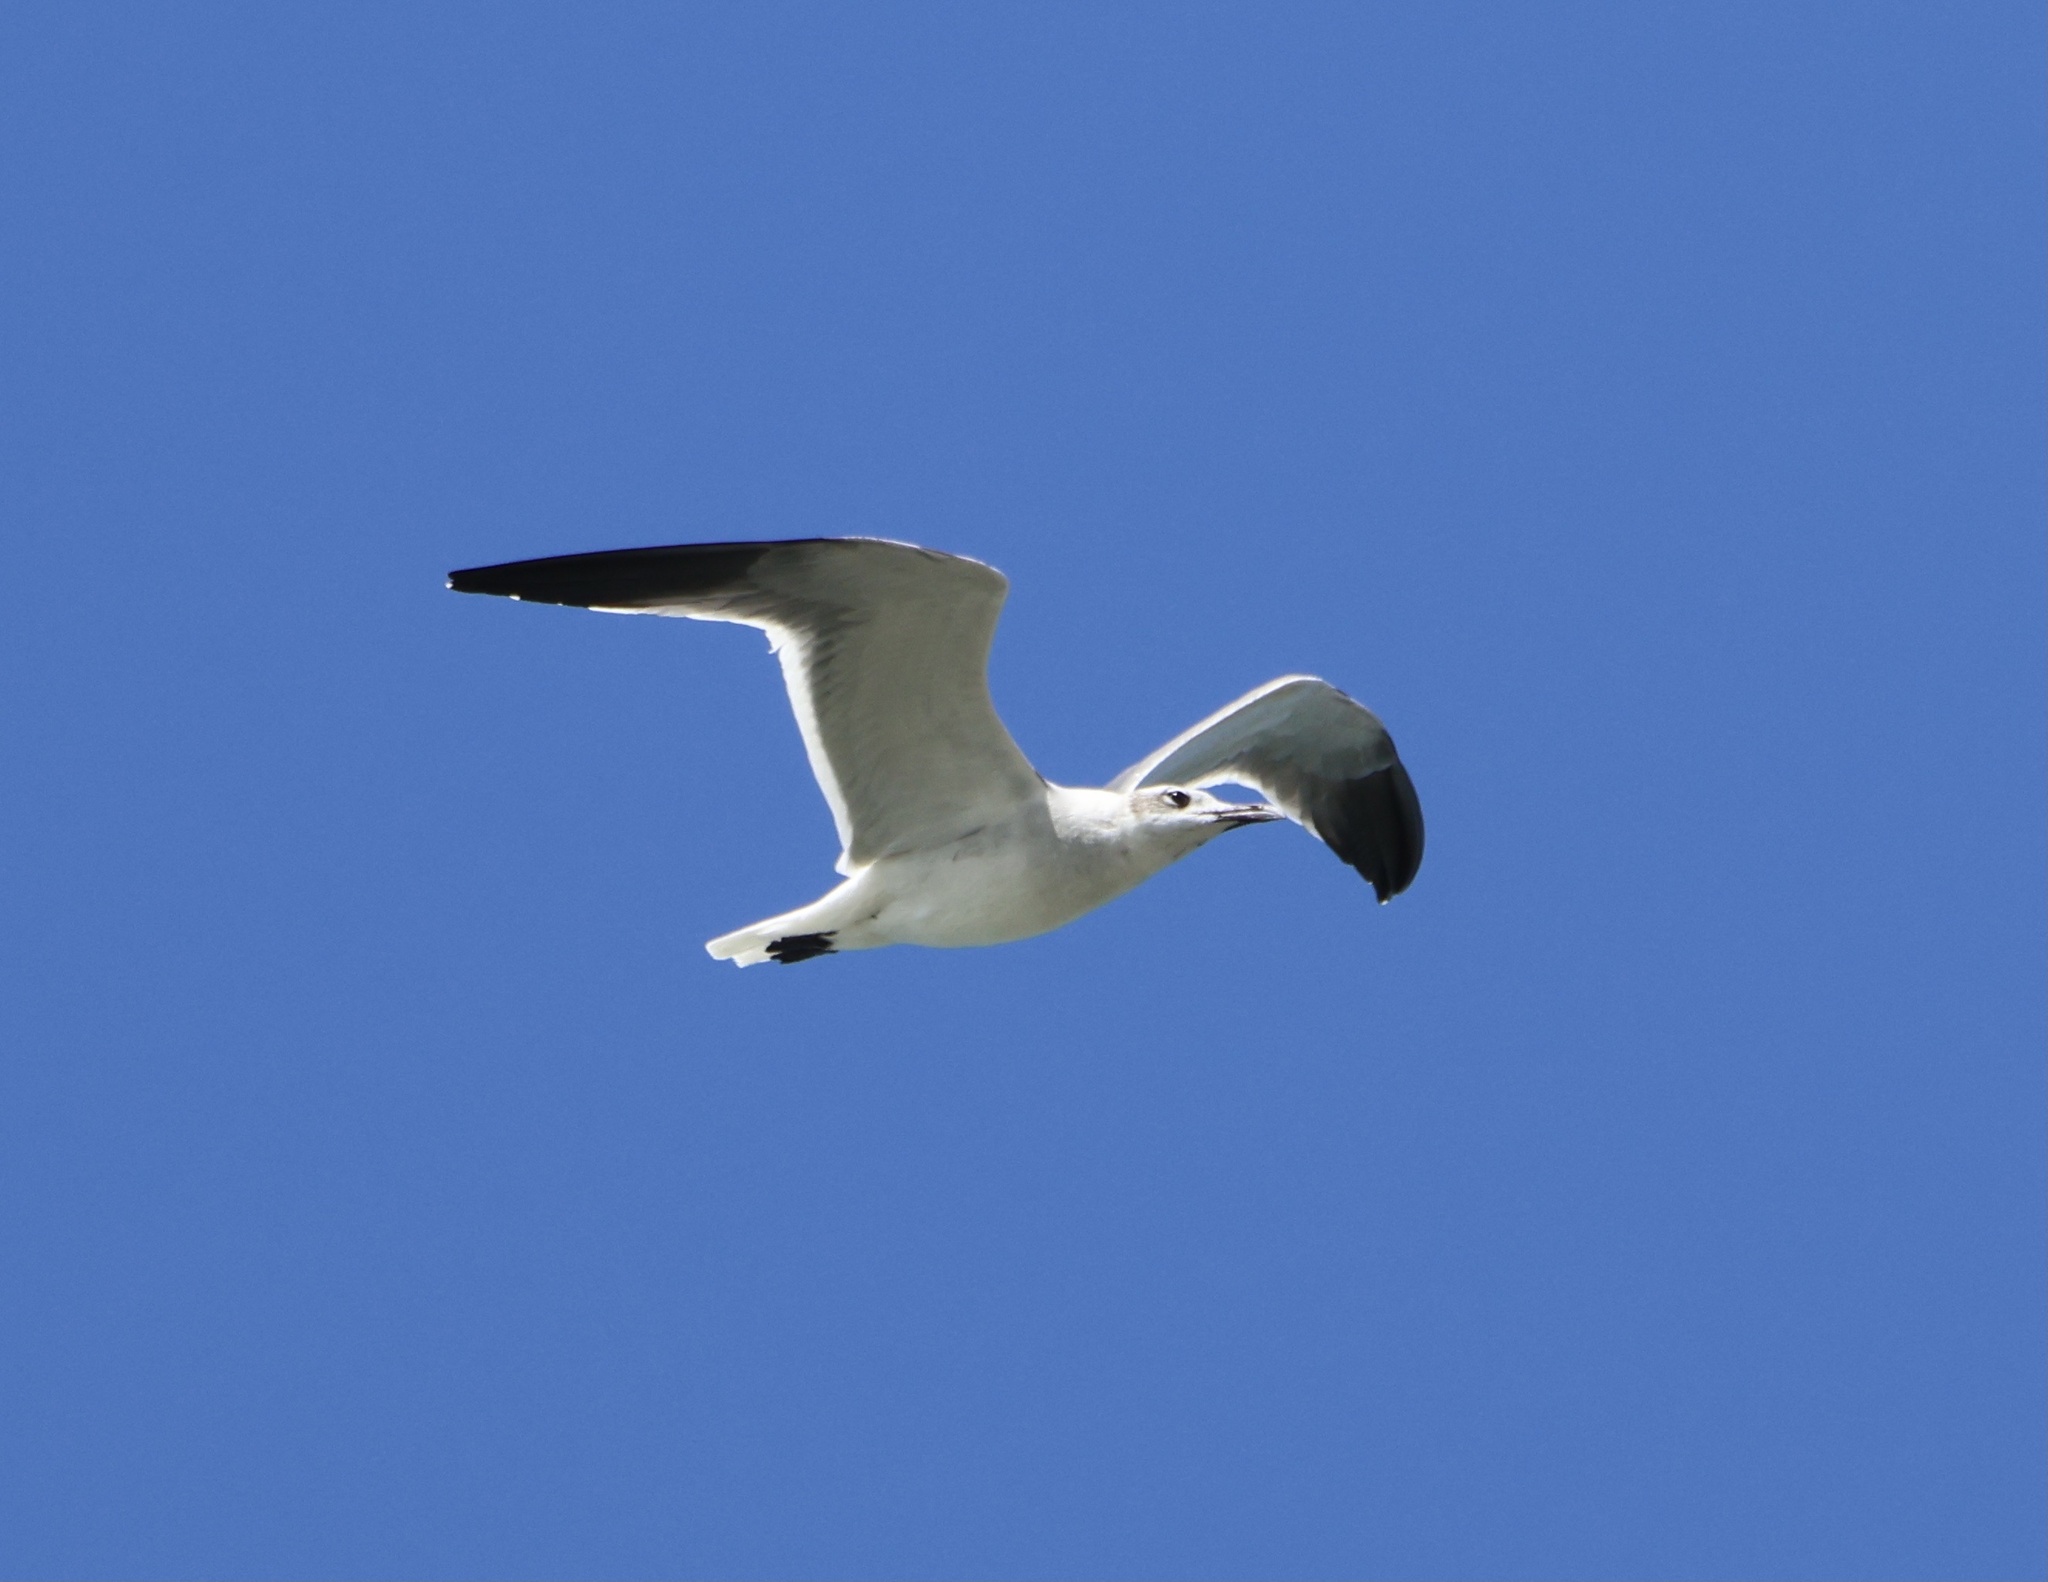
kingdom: Animalia
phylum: Chordata
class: Aves
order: Charadriiformes
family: Laridae
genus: Leucophaeus
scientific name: Leucophaeus atricilla
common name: Laughing gull
